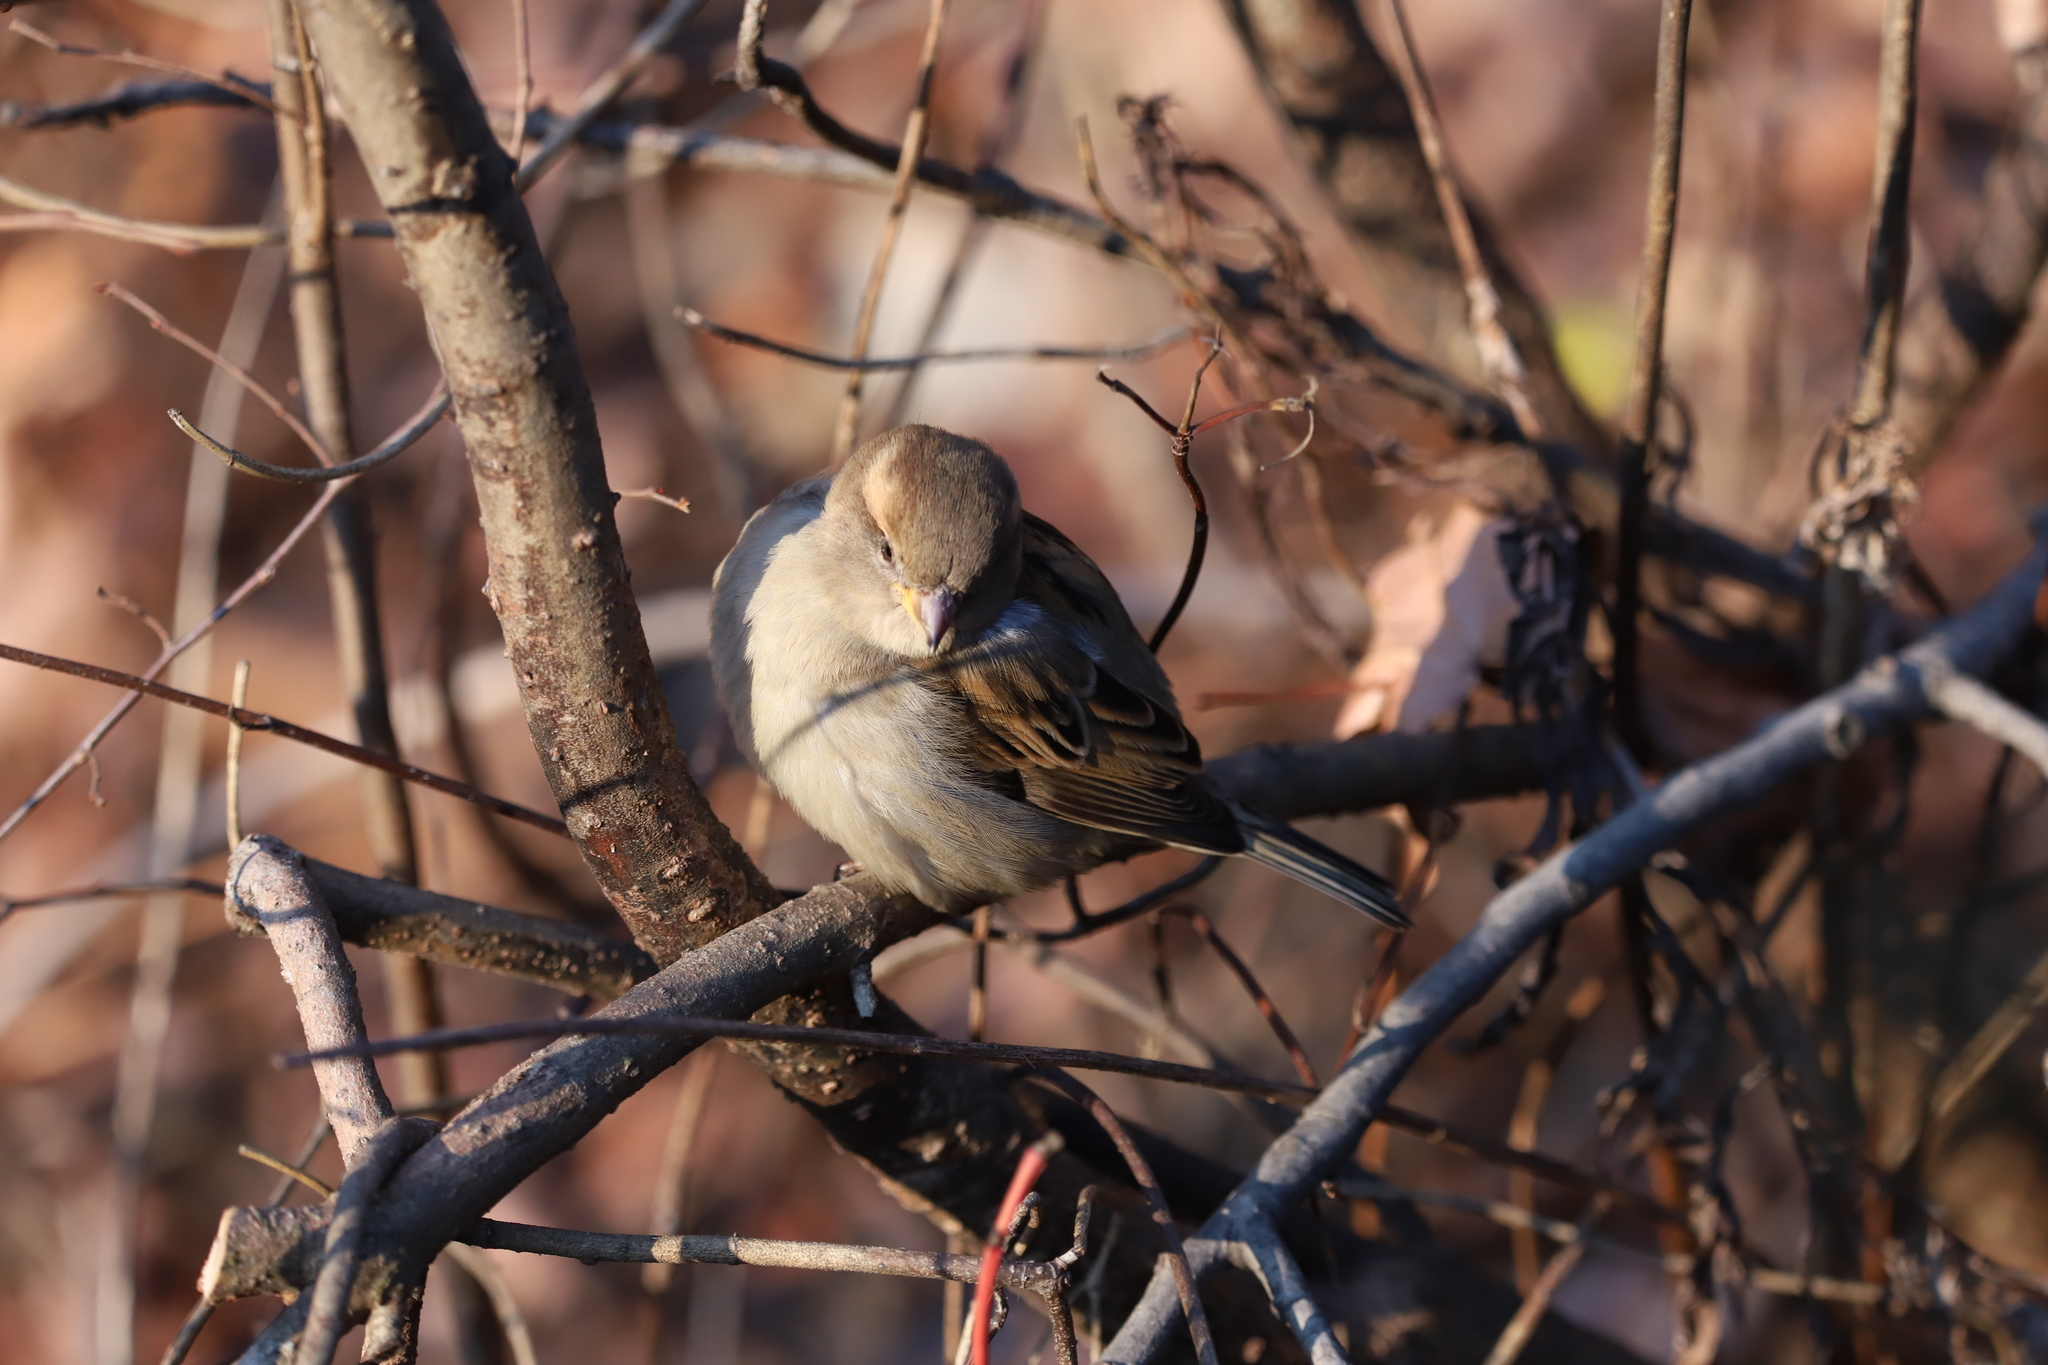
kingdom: Animalia
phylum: Chordata
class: Aves
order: Passeriformes
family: Passeridae
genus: Passer
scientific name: Passer domesticus
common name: House sparrow
